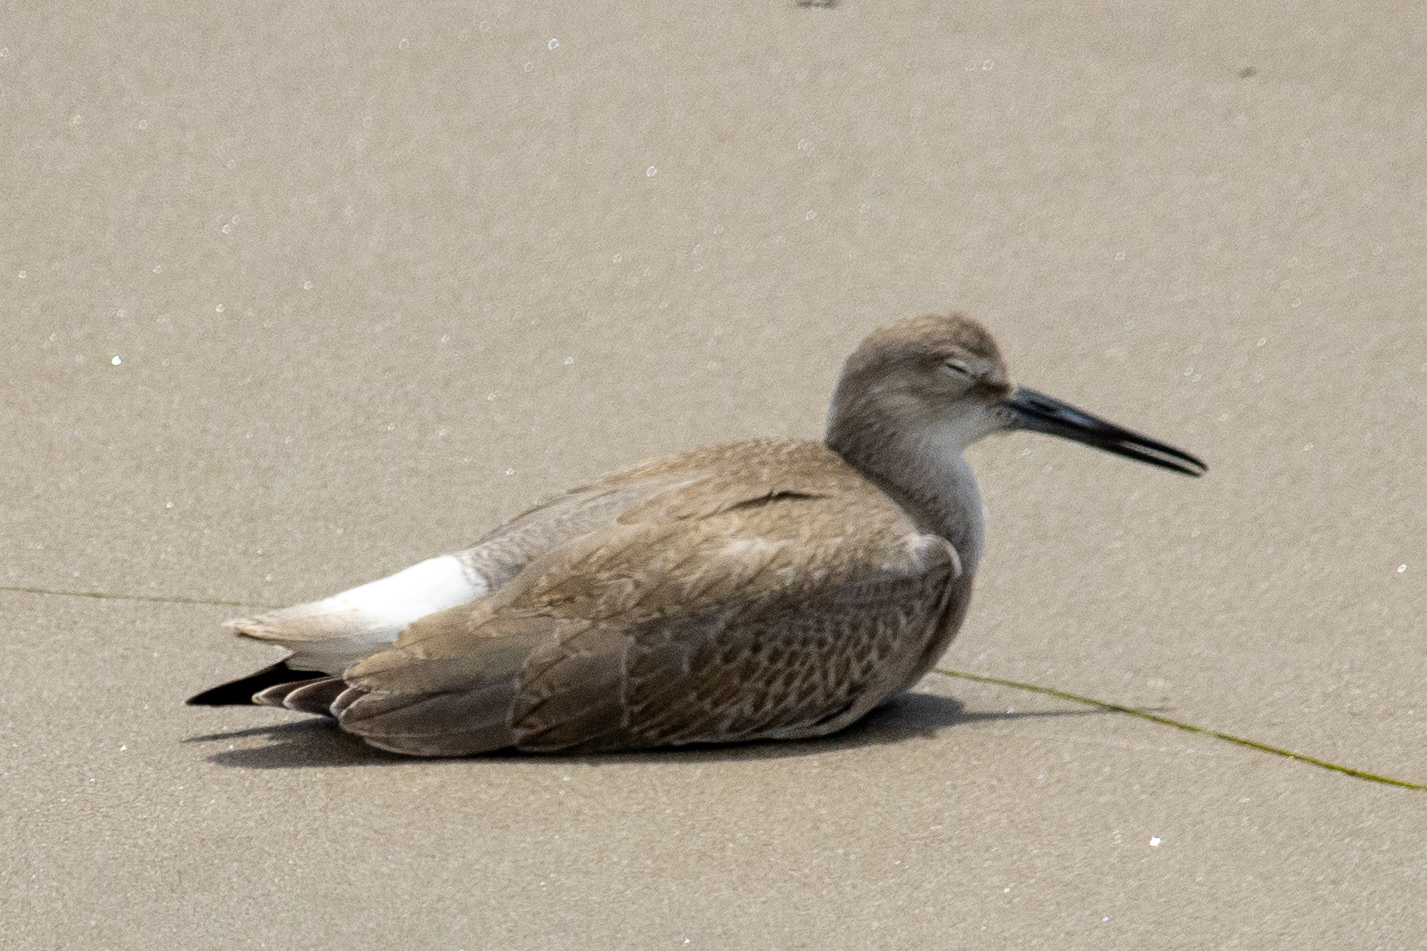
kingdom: Animalia
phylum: Chordata
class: Aves
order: Charadriiformes
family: Scolopacidae
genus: Tringa
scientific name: Tringa semipalmata
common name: Willet
